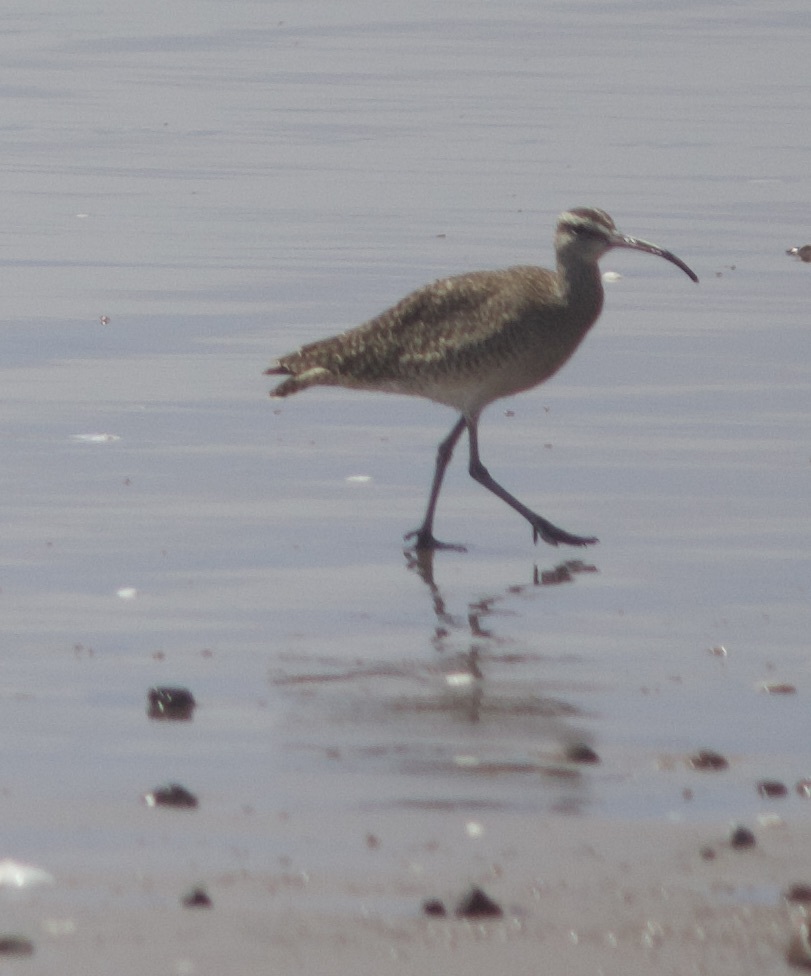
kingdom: Animalia
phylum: Chordata
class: Aves
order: Charadriiformes
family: Scolopacidae
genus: Numenius
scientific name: Numenius phaeopus
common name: Whimbrel
